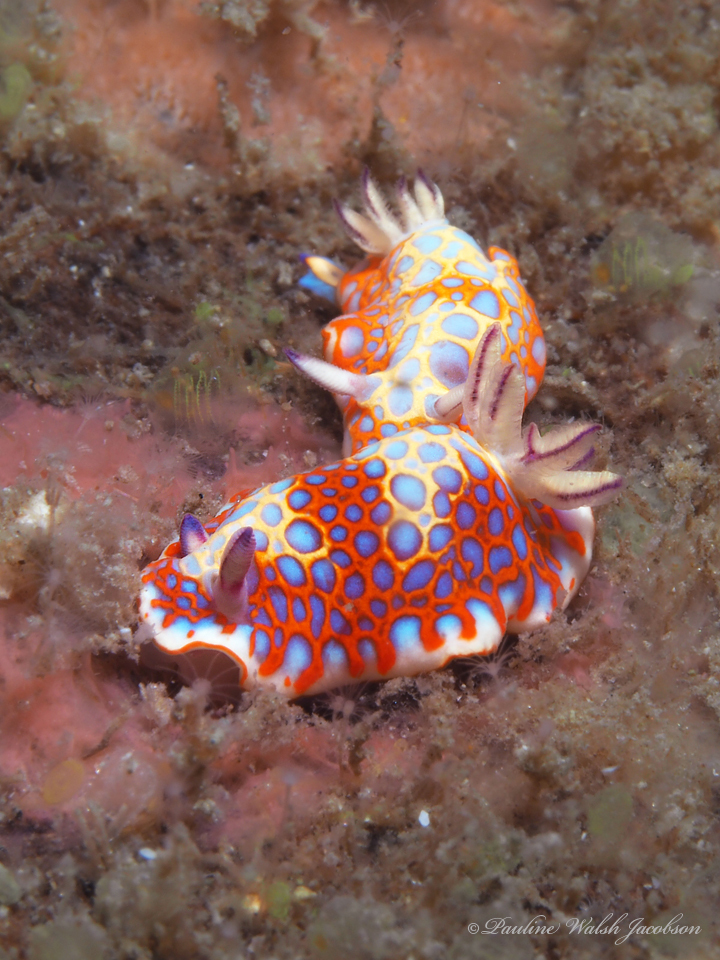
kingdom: Animalia
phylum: Mollusca
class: Gastropoda
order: Nudibranchia
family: Chromodorididae
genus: Felimida
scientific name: Felimida clenchi
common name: Bill clench's doris
